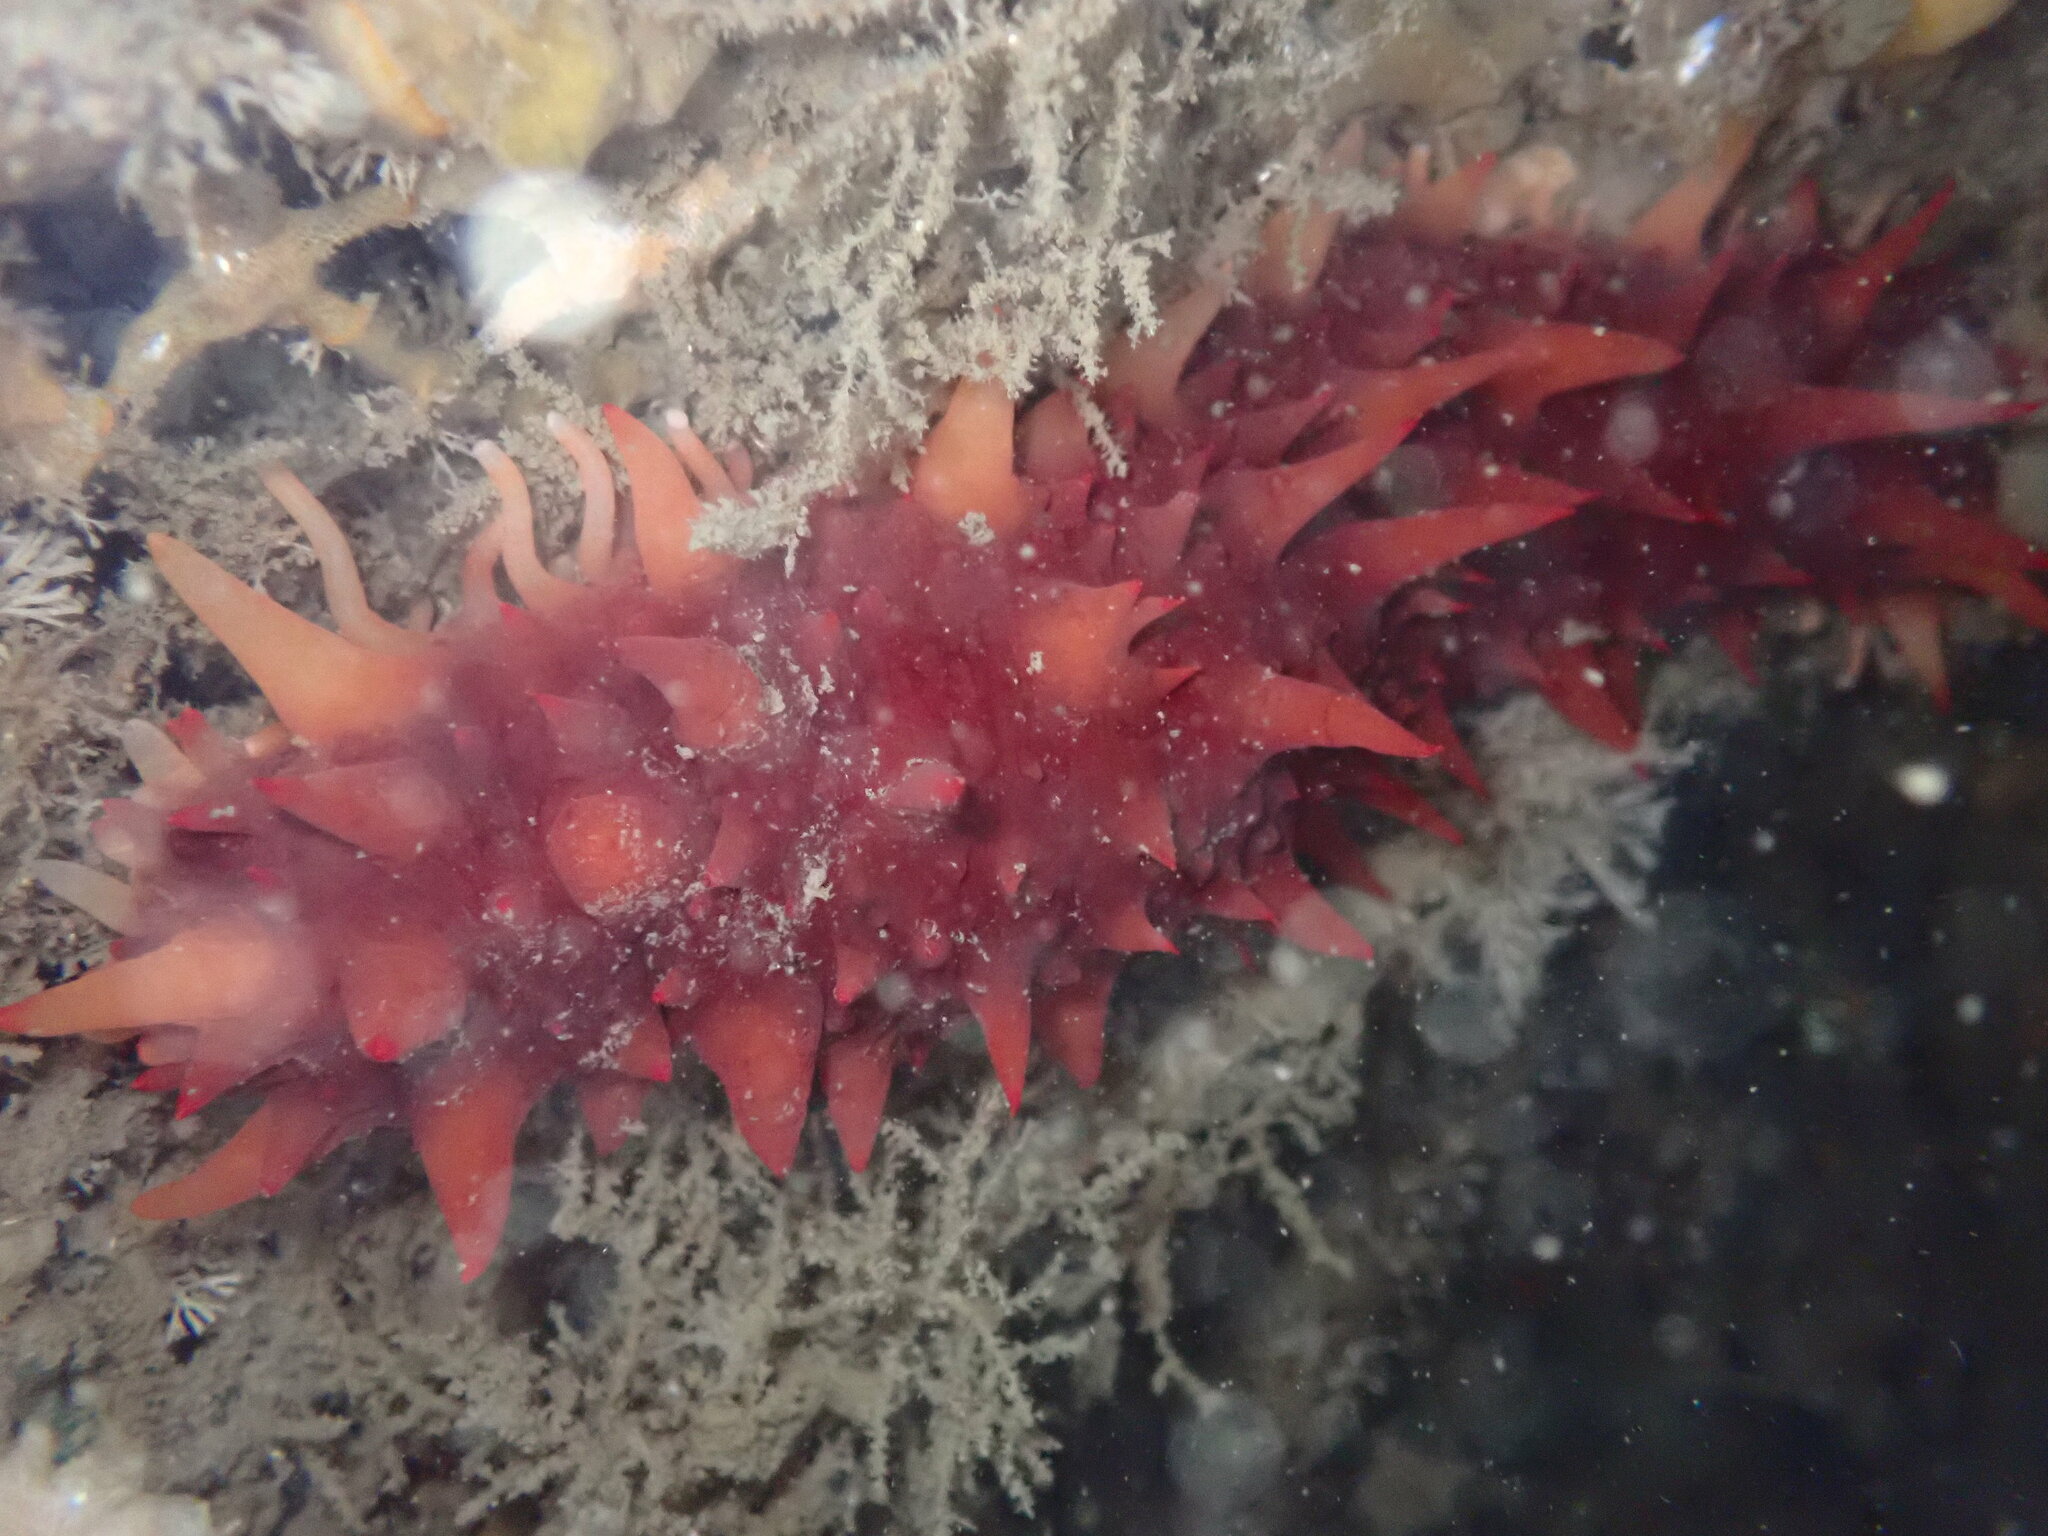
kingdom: Animalia
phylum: Echinodermata
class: Holothuroidea
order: Synallactida
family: Stichopodidae
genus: Apostichopus
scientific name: Apostichopus californicus
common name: California sea cucumber
